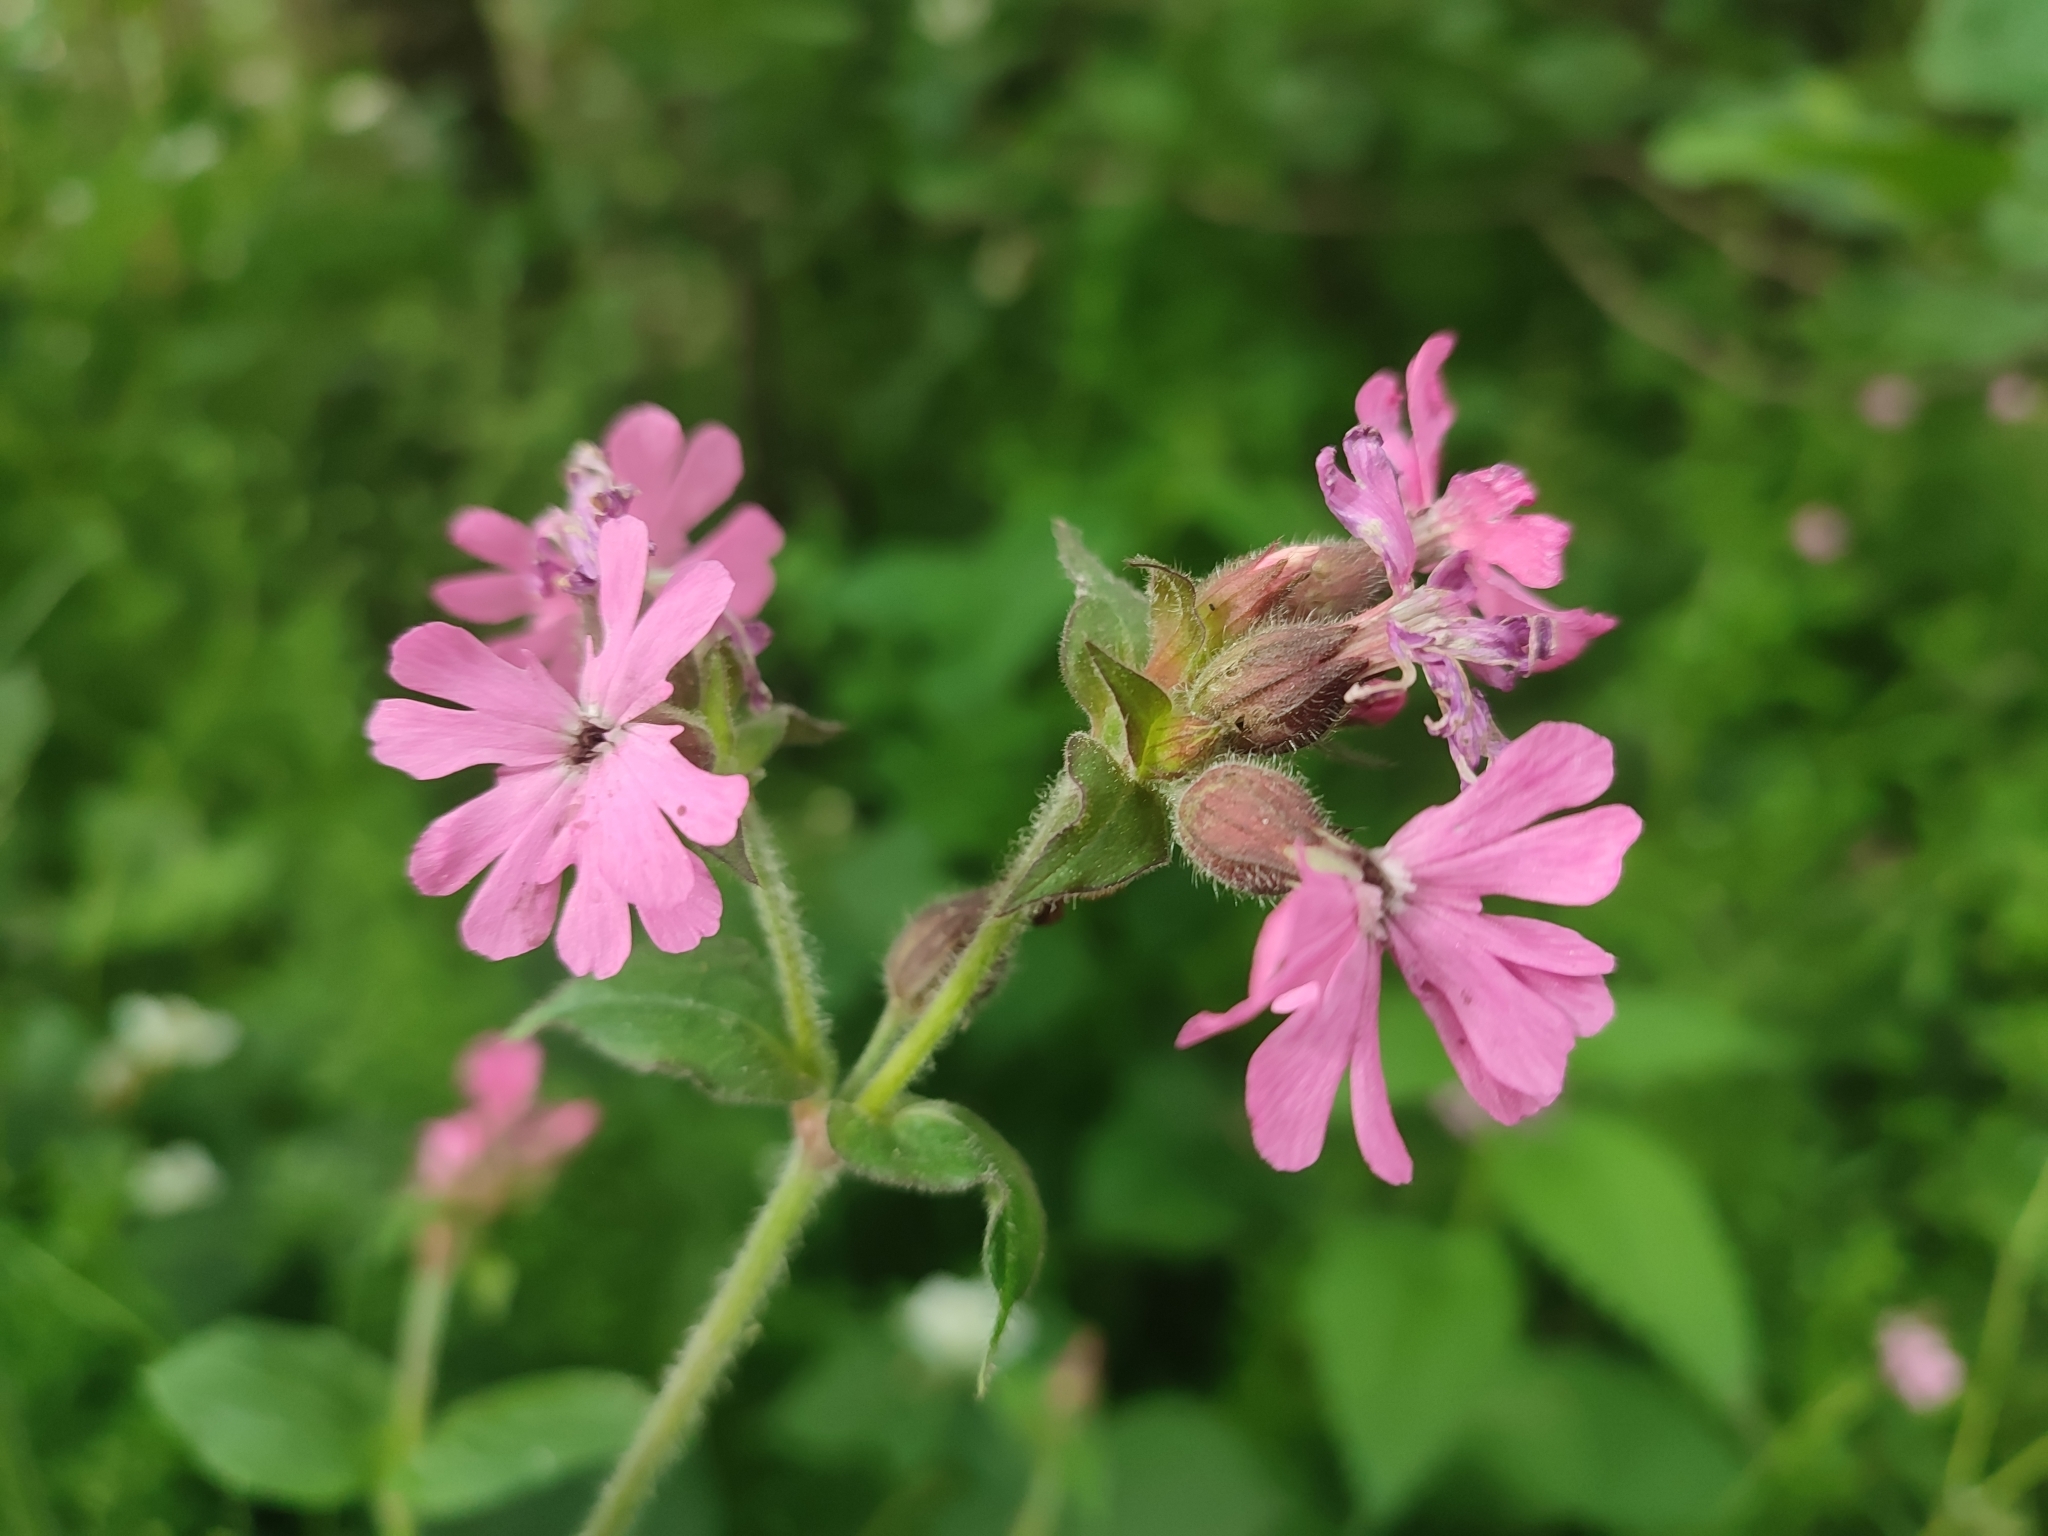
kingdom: Plantae
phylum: Tracheophyta
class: Magnoliopsida
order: Caryophyllales
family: Caryophyllaceae
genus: Silene
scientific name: Silene dioica
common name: Red campion
